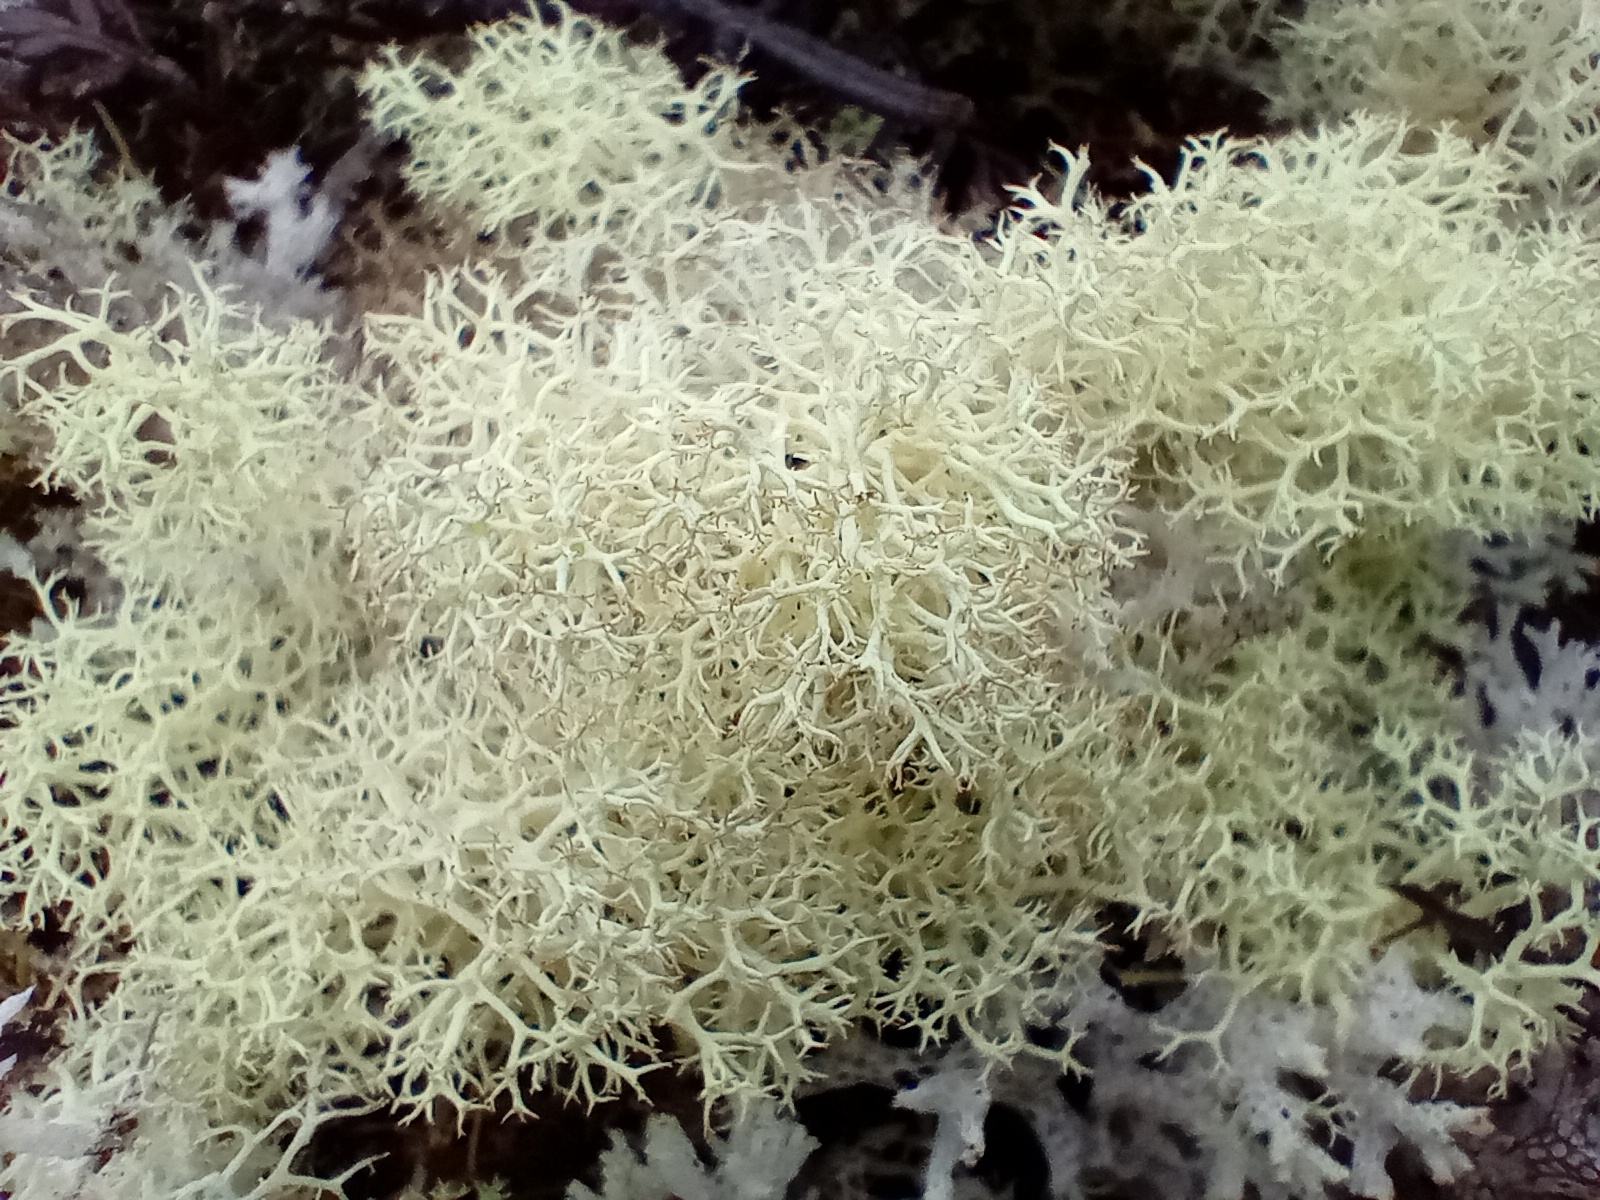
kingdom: Fungi
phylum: Ascomycota
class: Lecanoromycetes
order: Lecanorales
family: Cladoniaceae
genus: Cladonia
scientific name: Cladonia confusa
